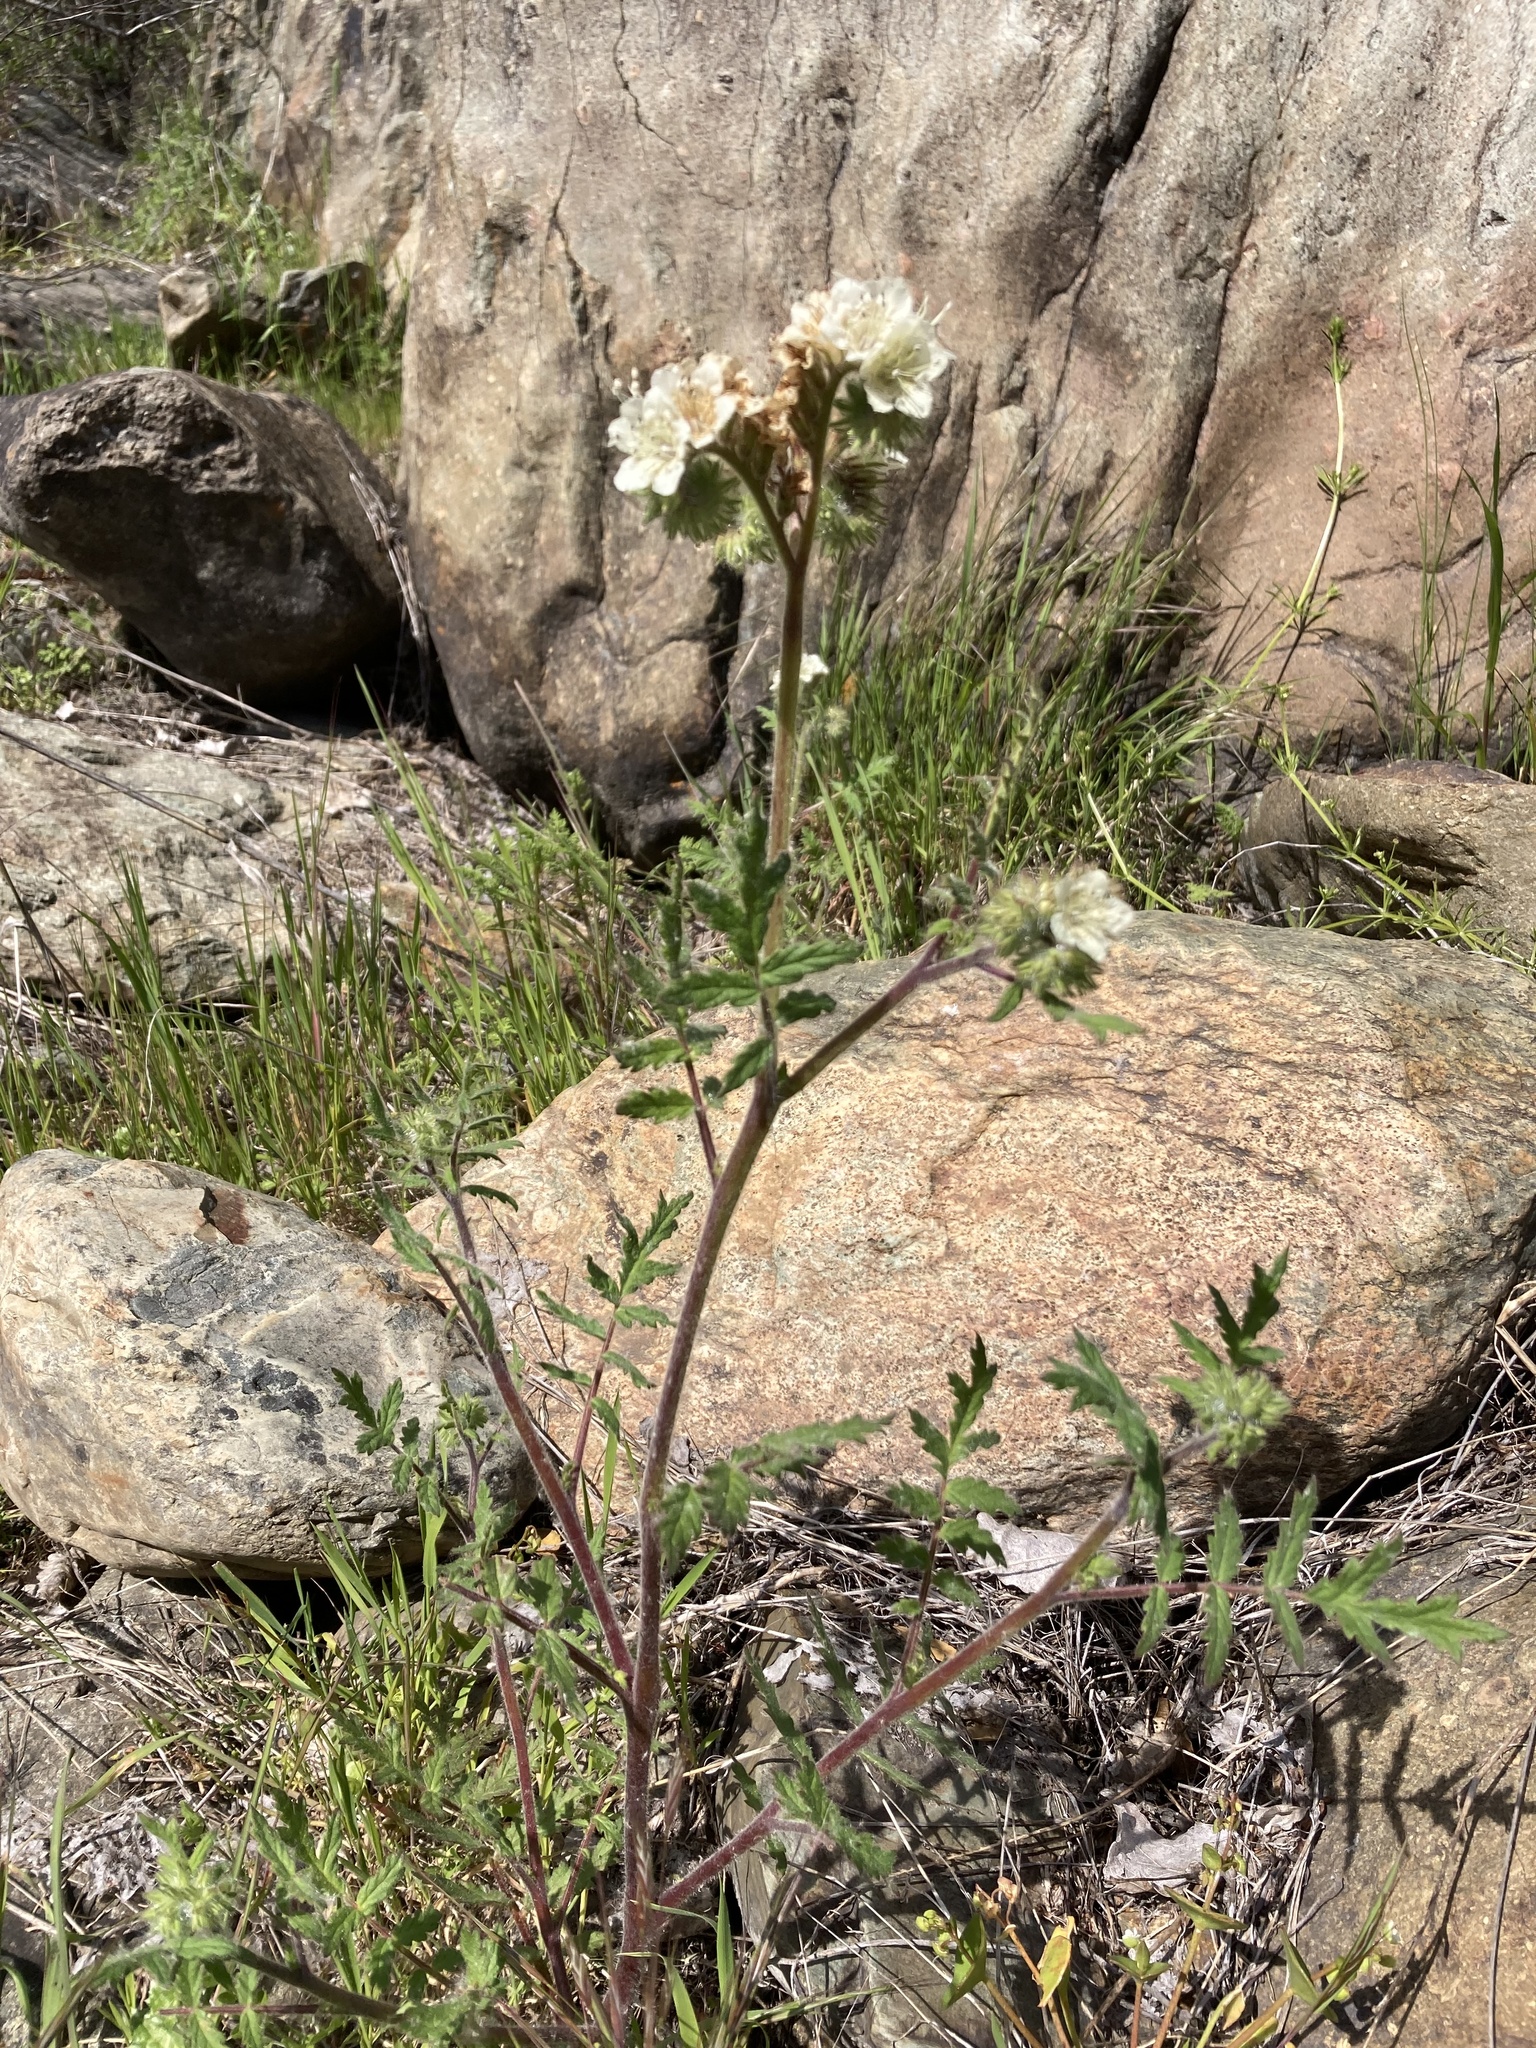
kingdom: Plantae
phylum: Tracheophyta
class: Magnoliopsida
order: Boraginales
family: Hydrophyllaceae
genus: Phacelia
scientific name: Phacelia cicutaria
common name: Caterpillar phacelia
